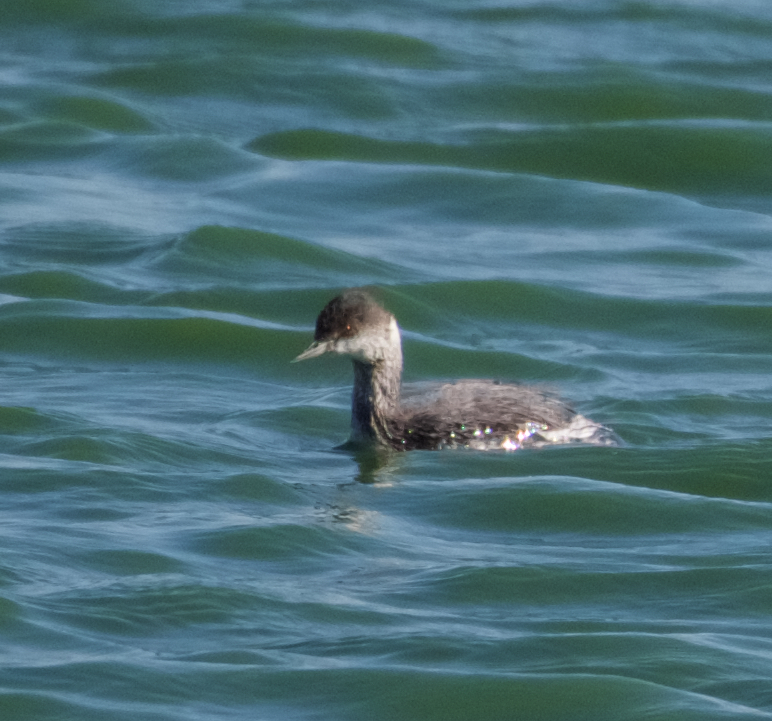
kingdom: Animalia
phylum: Chordata
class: Aves
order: Podicipediformes
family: Podicipedidae
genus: Podiceps
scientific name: Podiceps nigricollis
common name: Black-necked grebe
